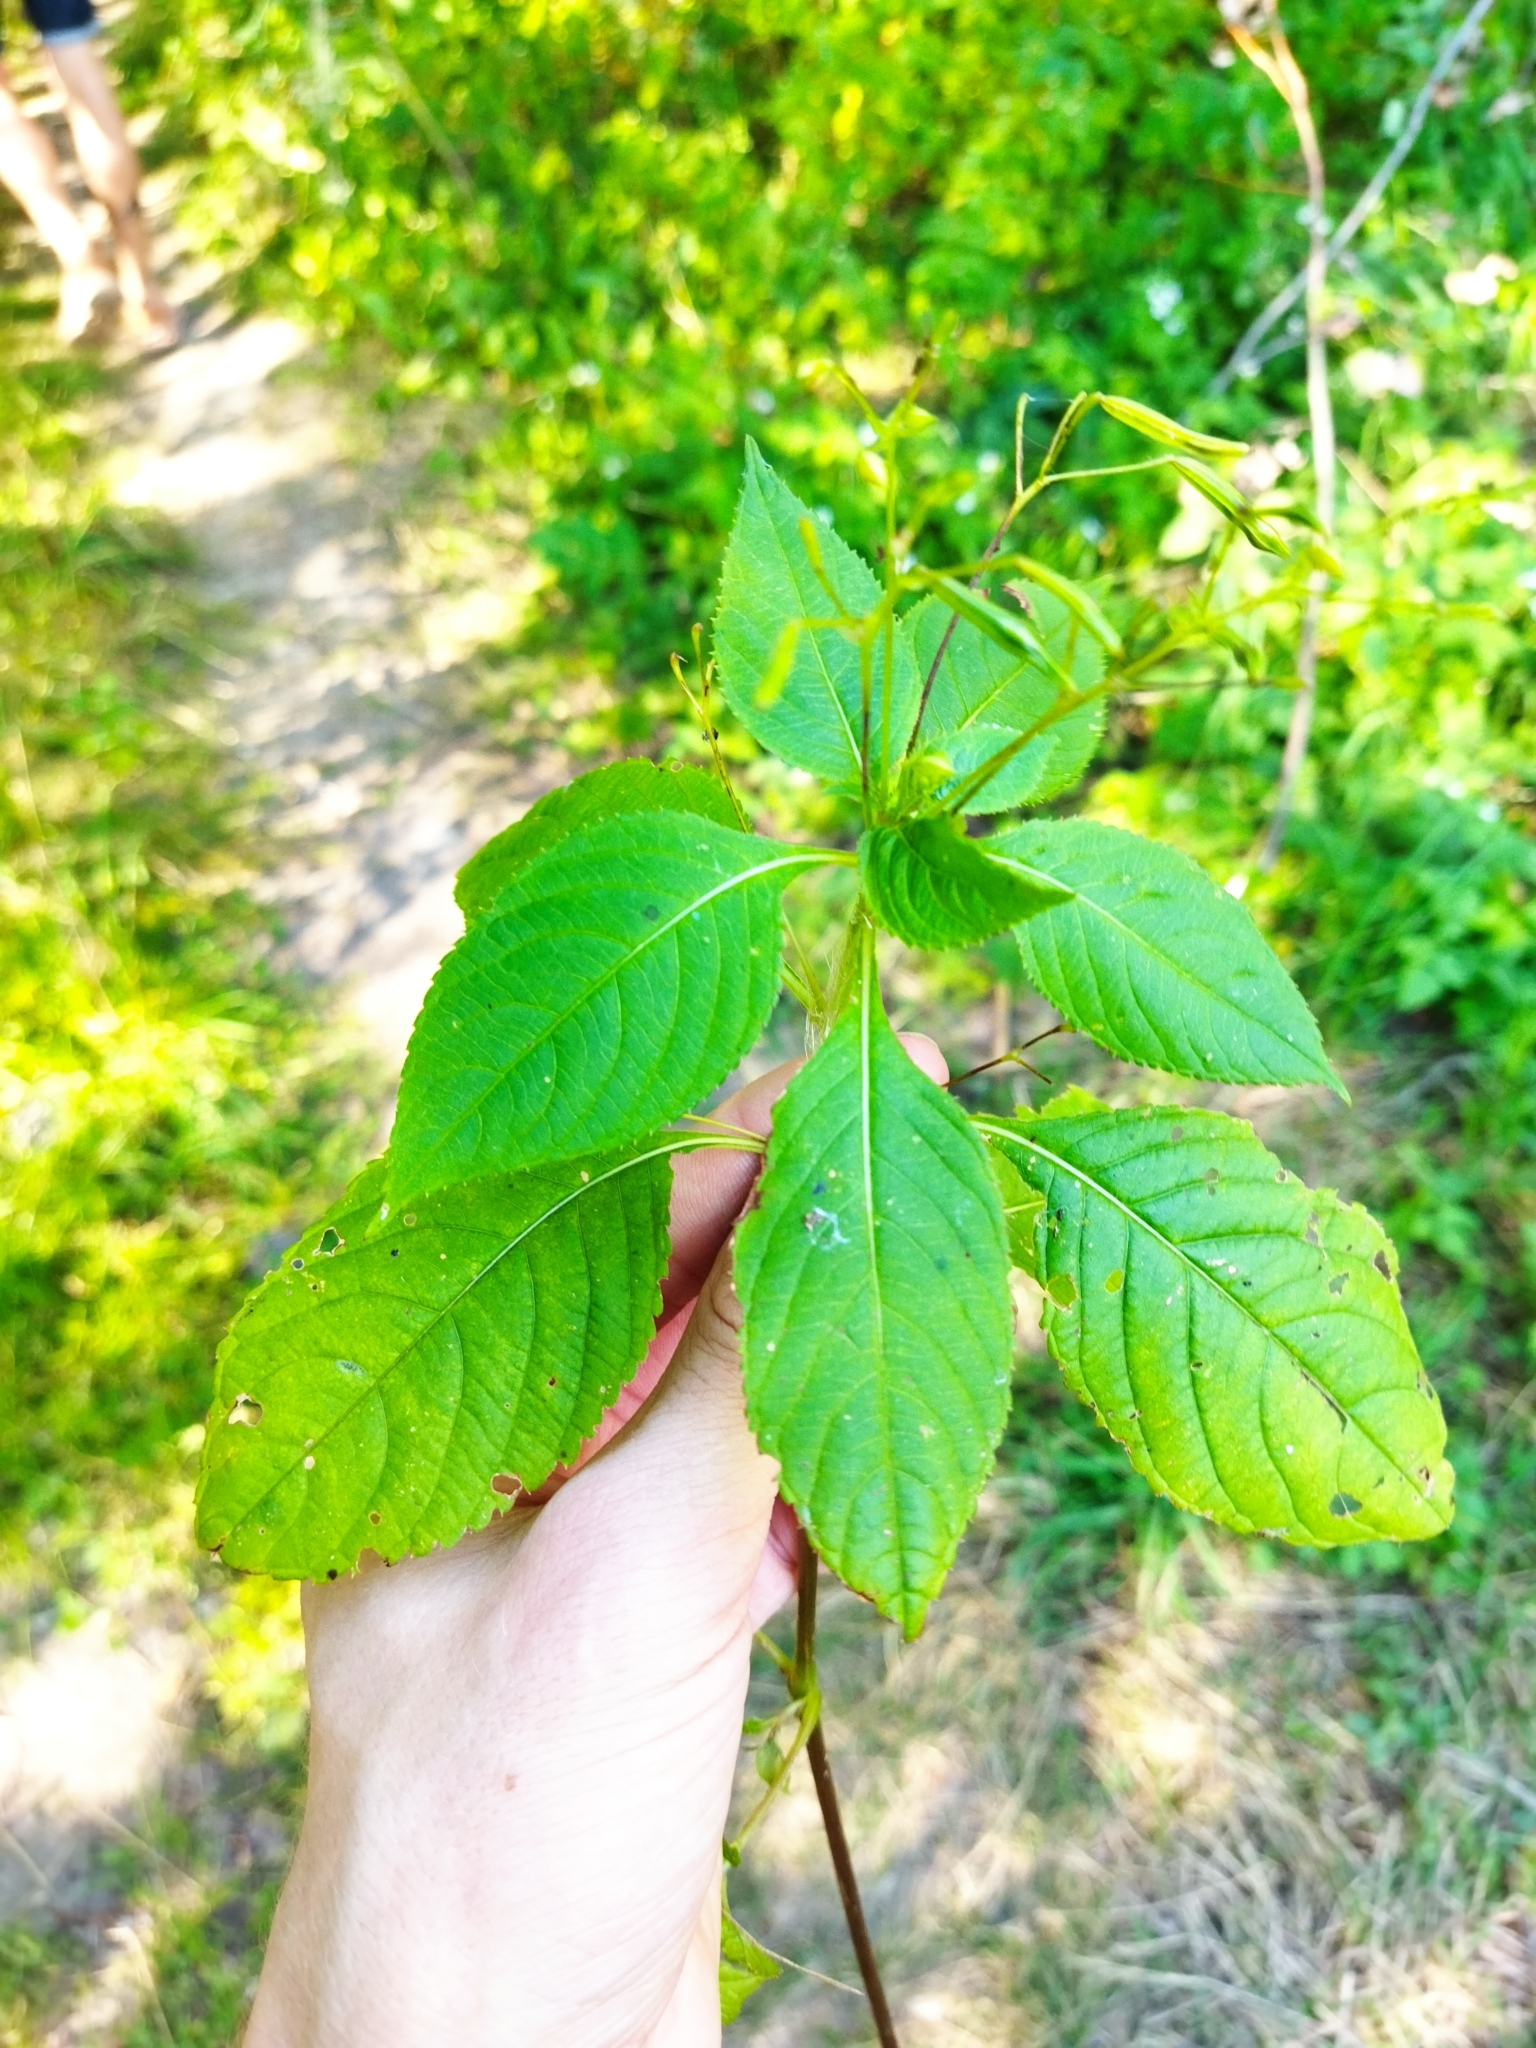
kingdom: Plantae
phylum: Tracheophyta
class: Magnoliopsida
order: Ericales
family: Balsaminaceae
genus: Impatiens
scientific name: Impatiens parviflora
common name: Small balsam
